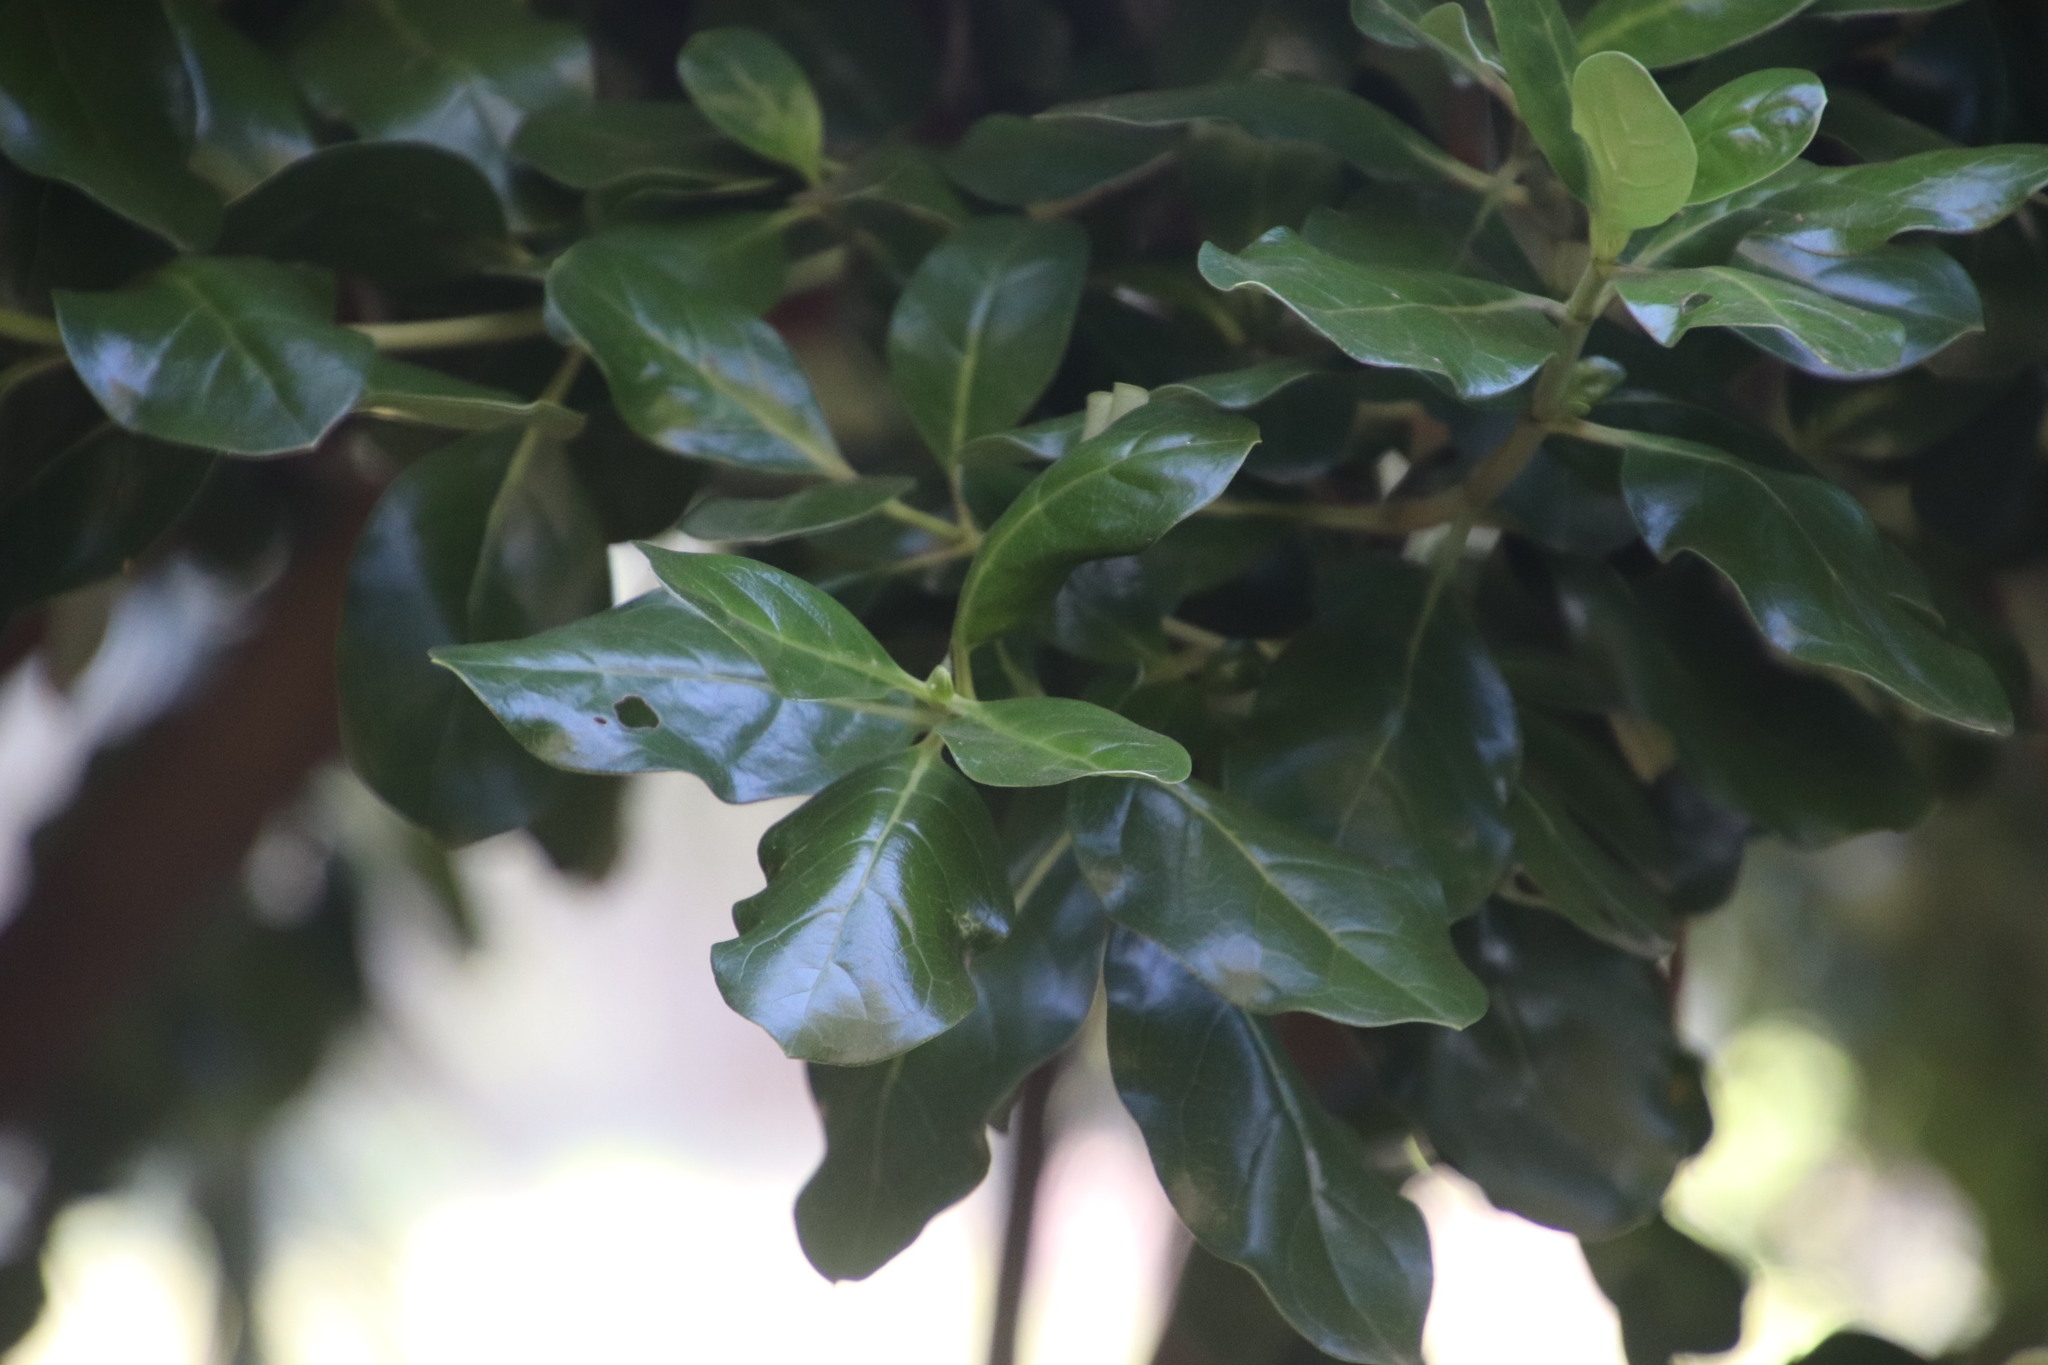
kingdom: Plantae
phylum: Tracheophyta
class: Magnoliopsida
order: Gentianales
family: Rubiaceae
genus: Coprosma
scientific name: Coprosma repens
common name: Tree bedstraw
